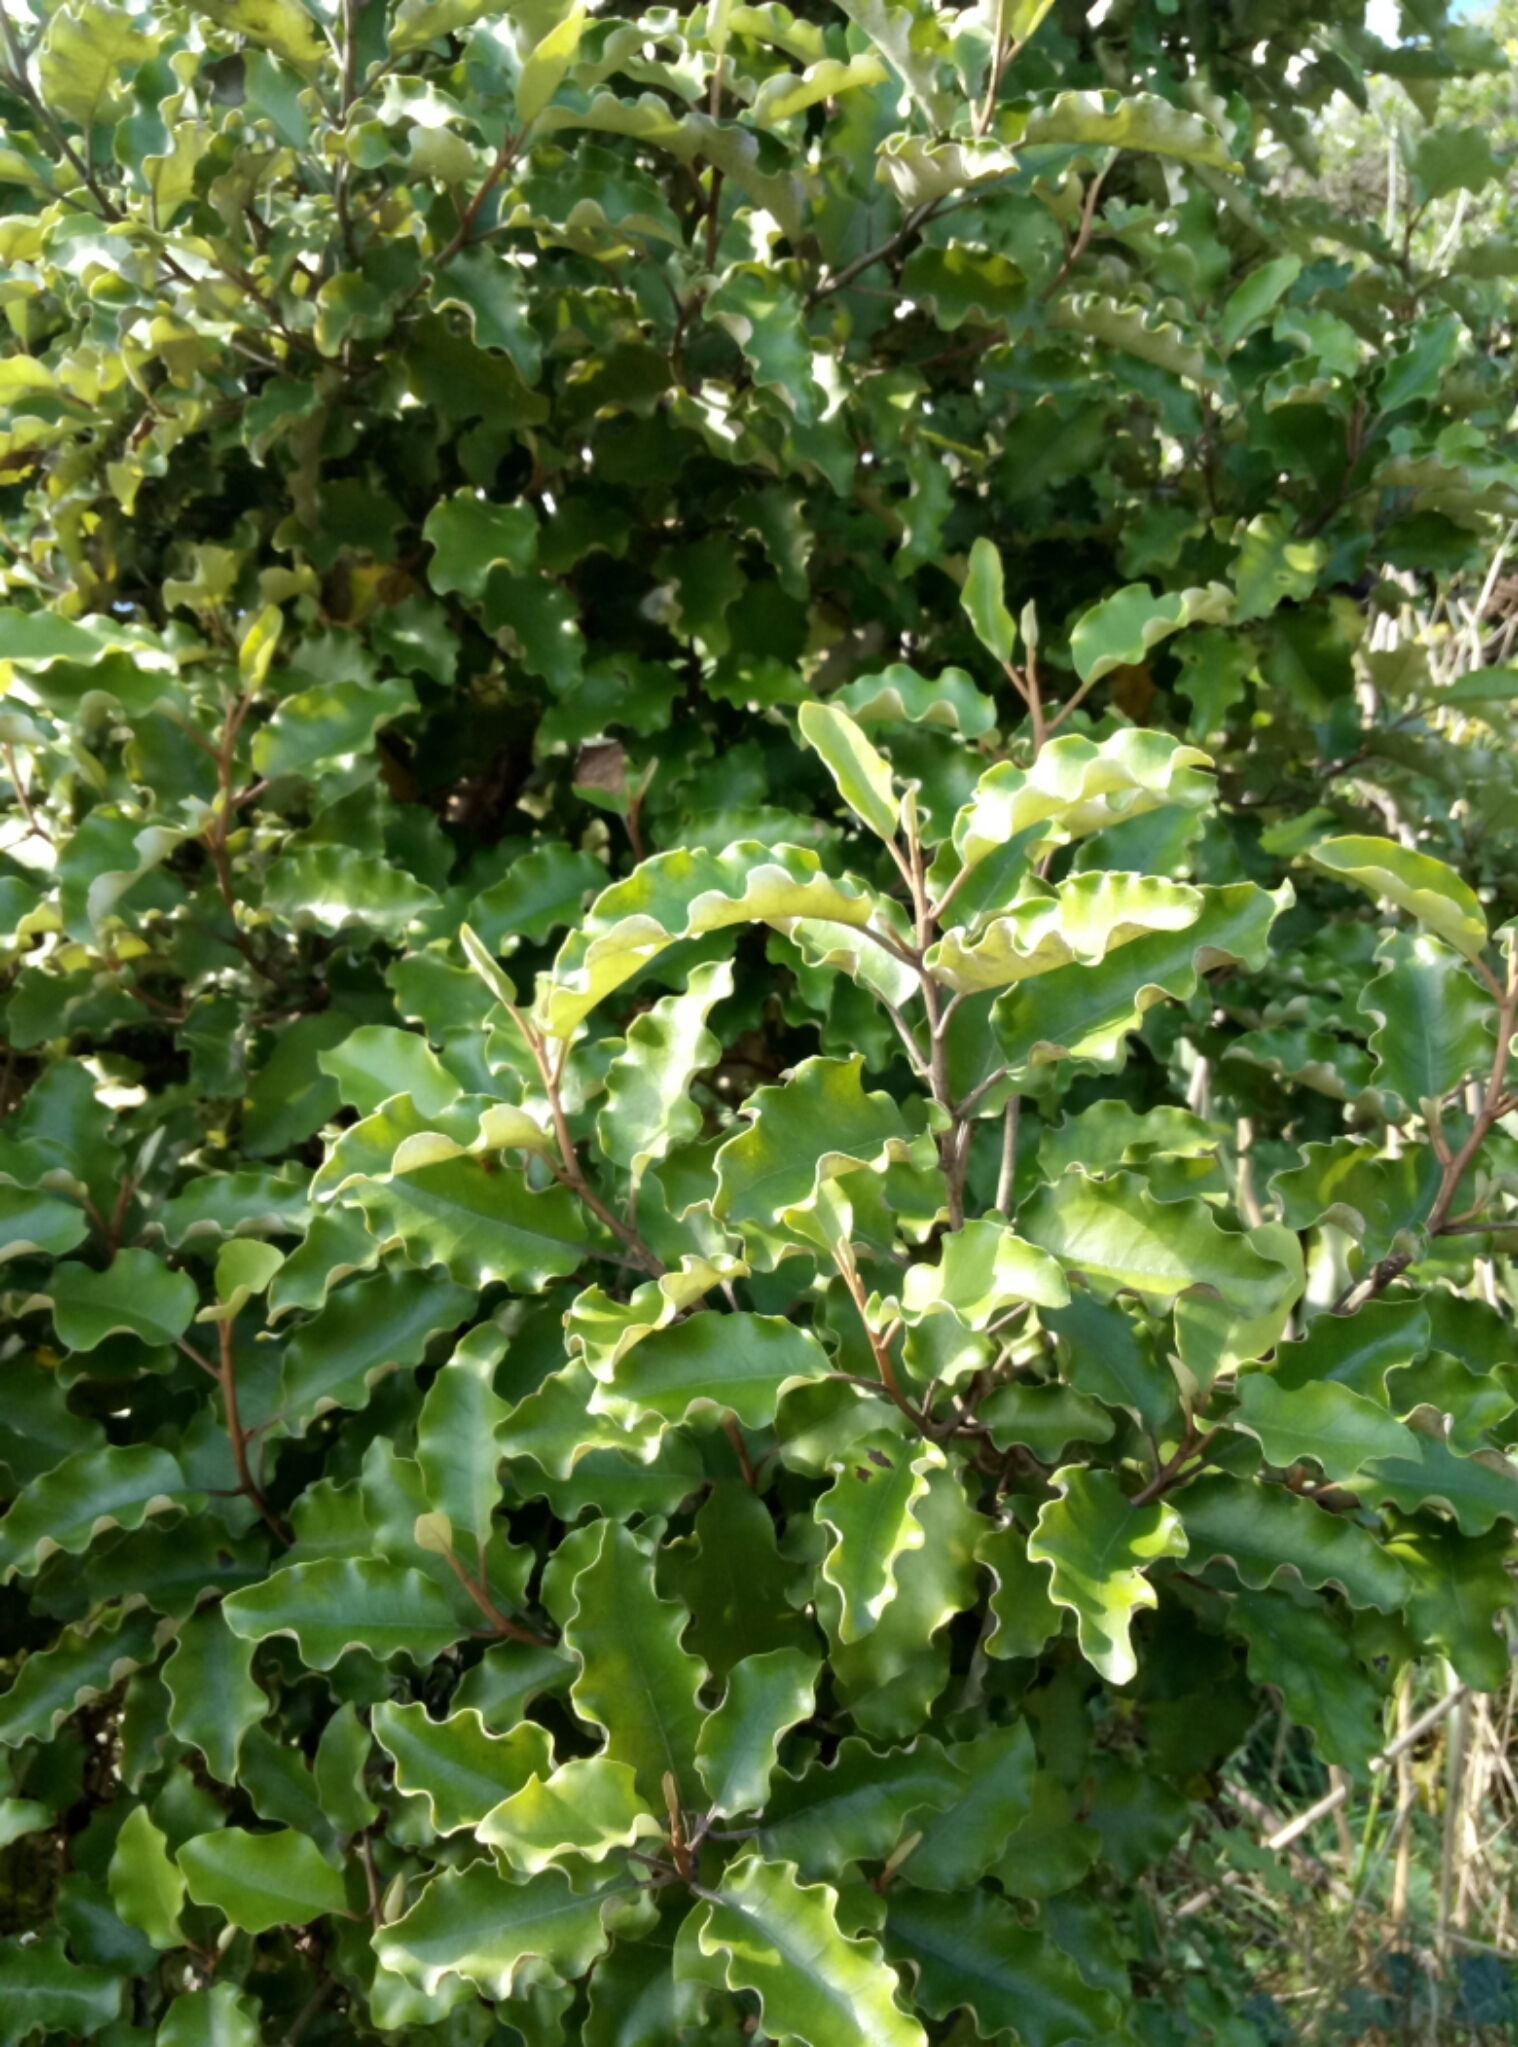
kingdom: Plantae
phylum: Tracheophyta
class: Magnoliopsida
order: Asterales
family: Asteraceae
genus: Olearia
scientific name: Olearia paniculata
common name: Akiraho
